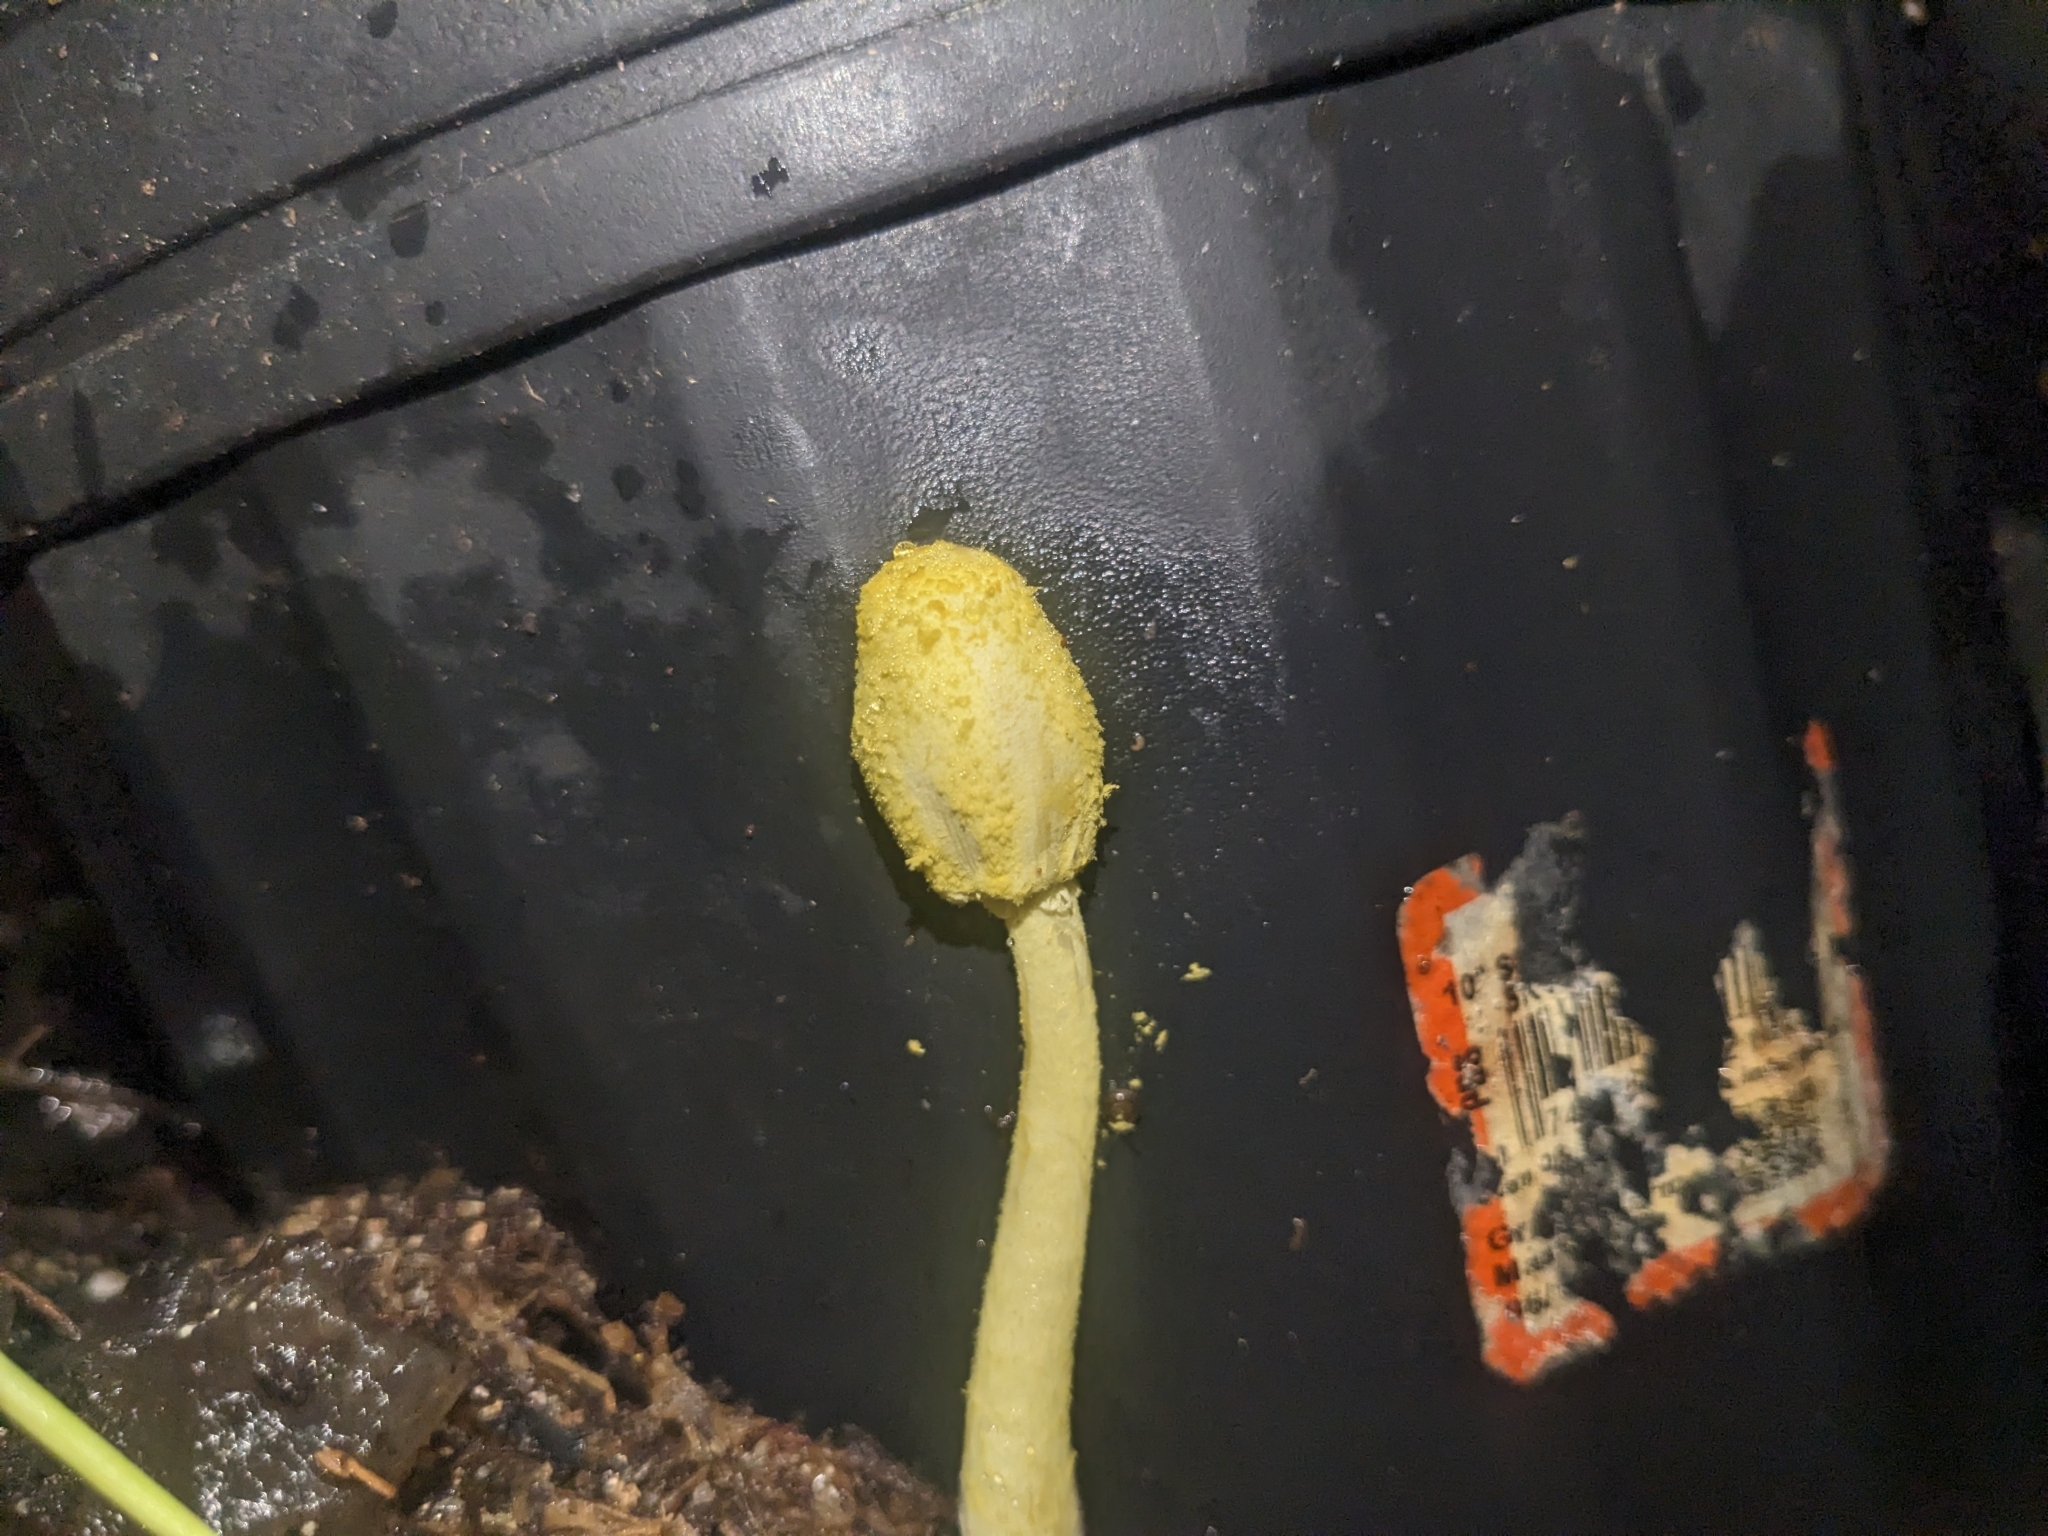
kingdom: Fungi
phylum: Basidiomycota
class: Agaricomycetes
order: Agaricales
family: Agaricaceae
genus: Leucocoprinus
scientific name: Leucocoprinus birnbaumii
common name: Plantpot dapperling
